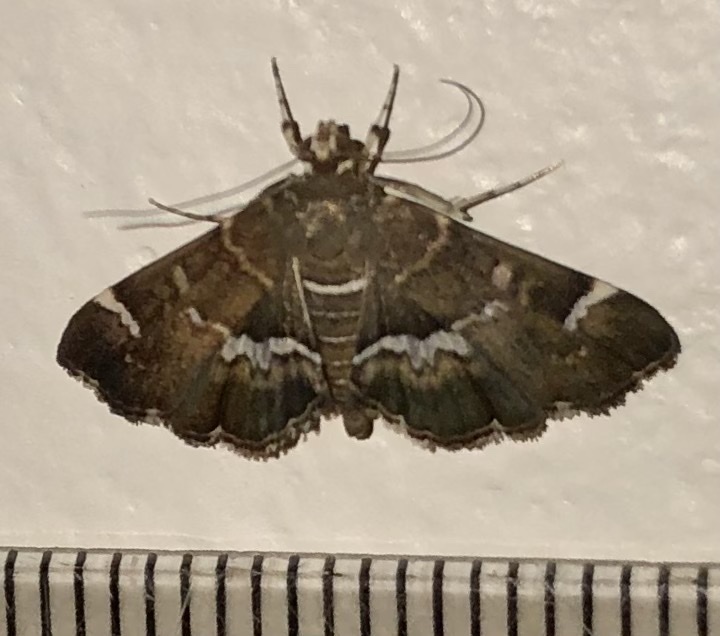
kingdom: Animalia
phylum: Arthropoda
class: Insecta
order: Lepidoptera
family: Crambidae
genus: Hymenia
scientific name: Hymenia perspectalis
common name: Spotted beet webworm
